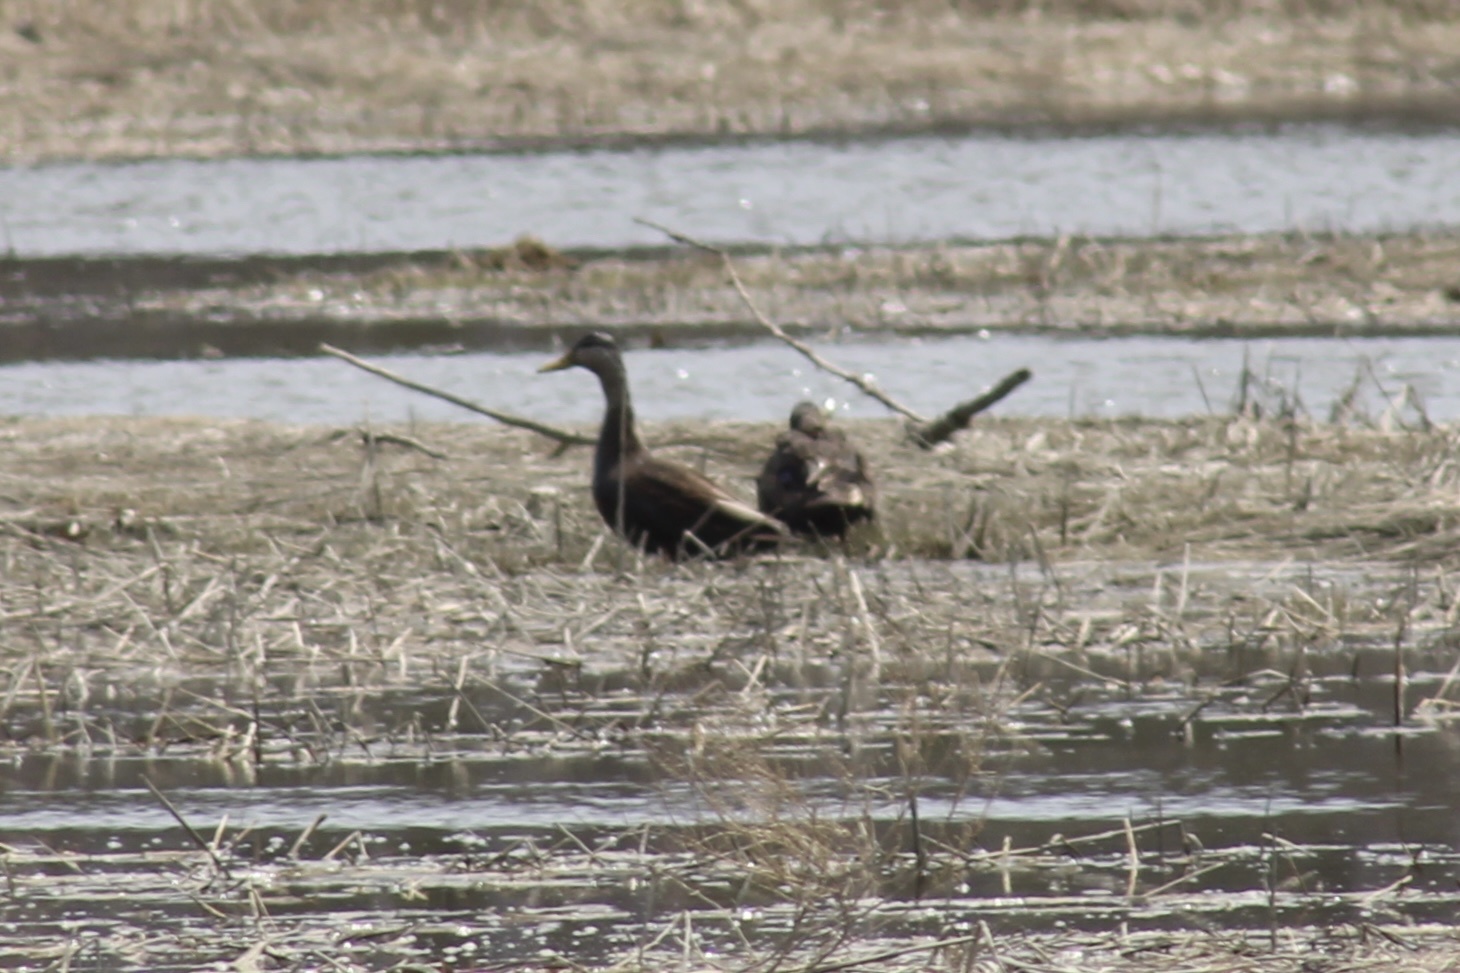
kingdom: Animalia
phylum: Chordata
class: Aves
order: Anseriformes
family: Anatidae
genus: Anas
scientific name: Anas rubripes
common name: American black duck
